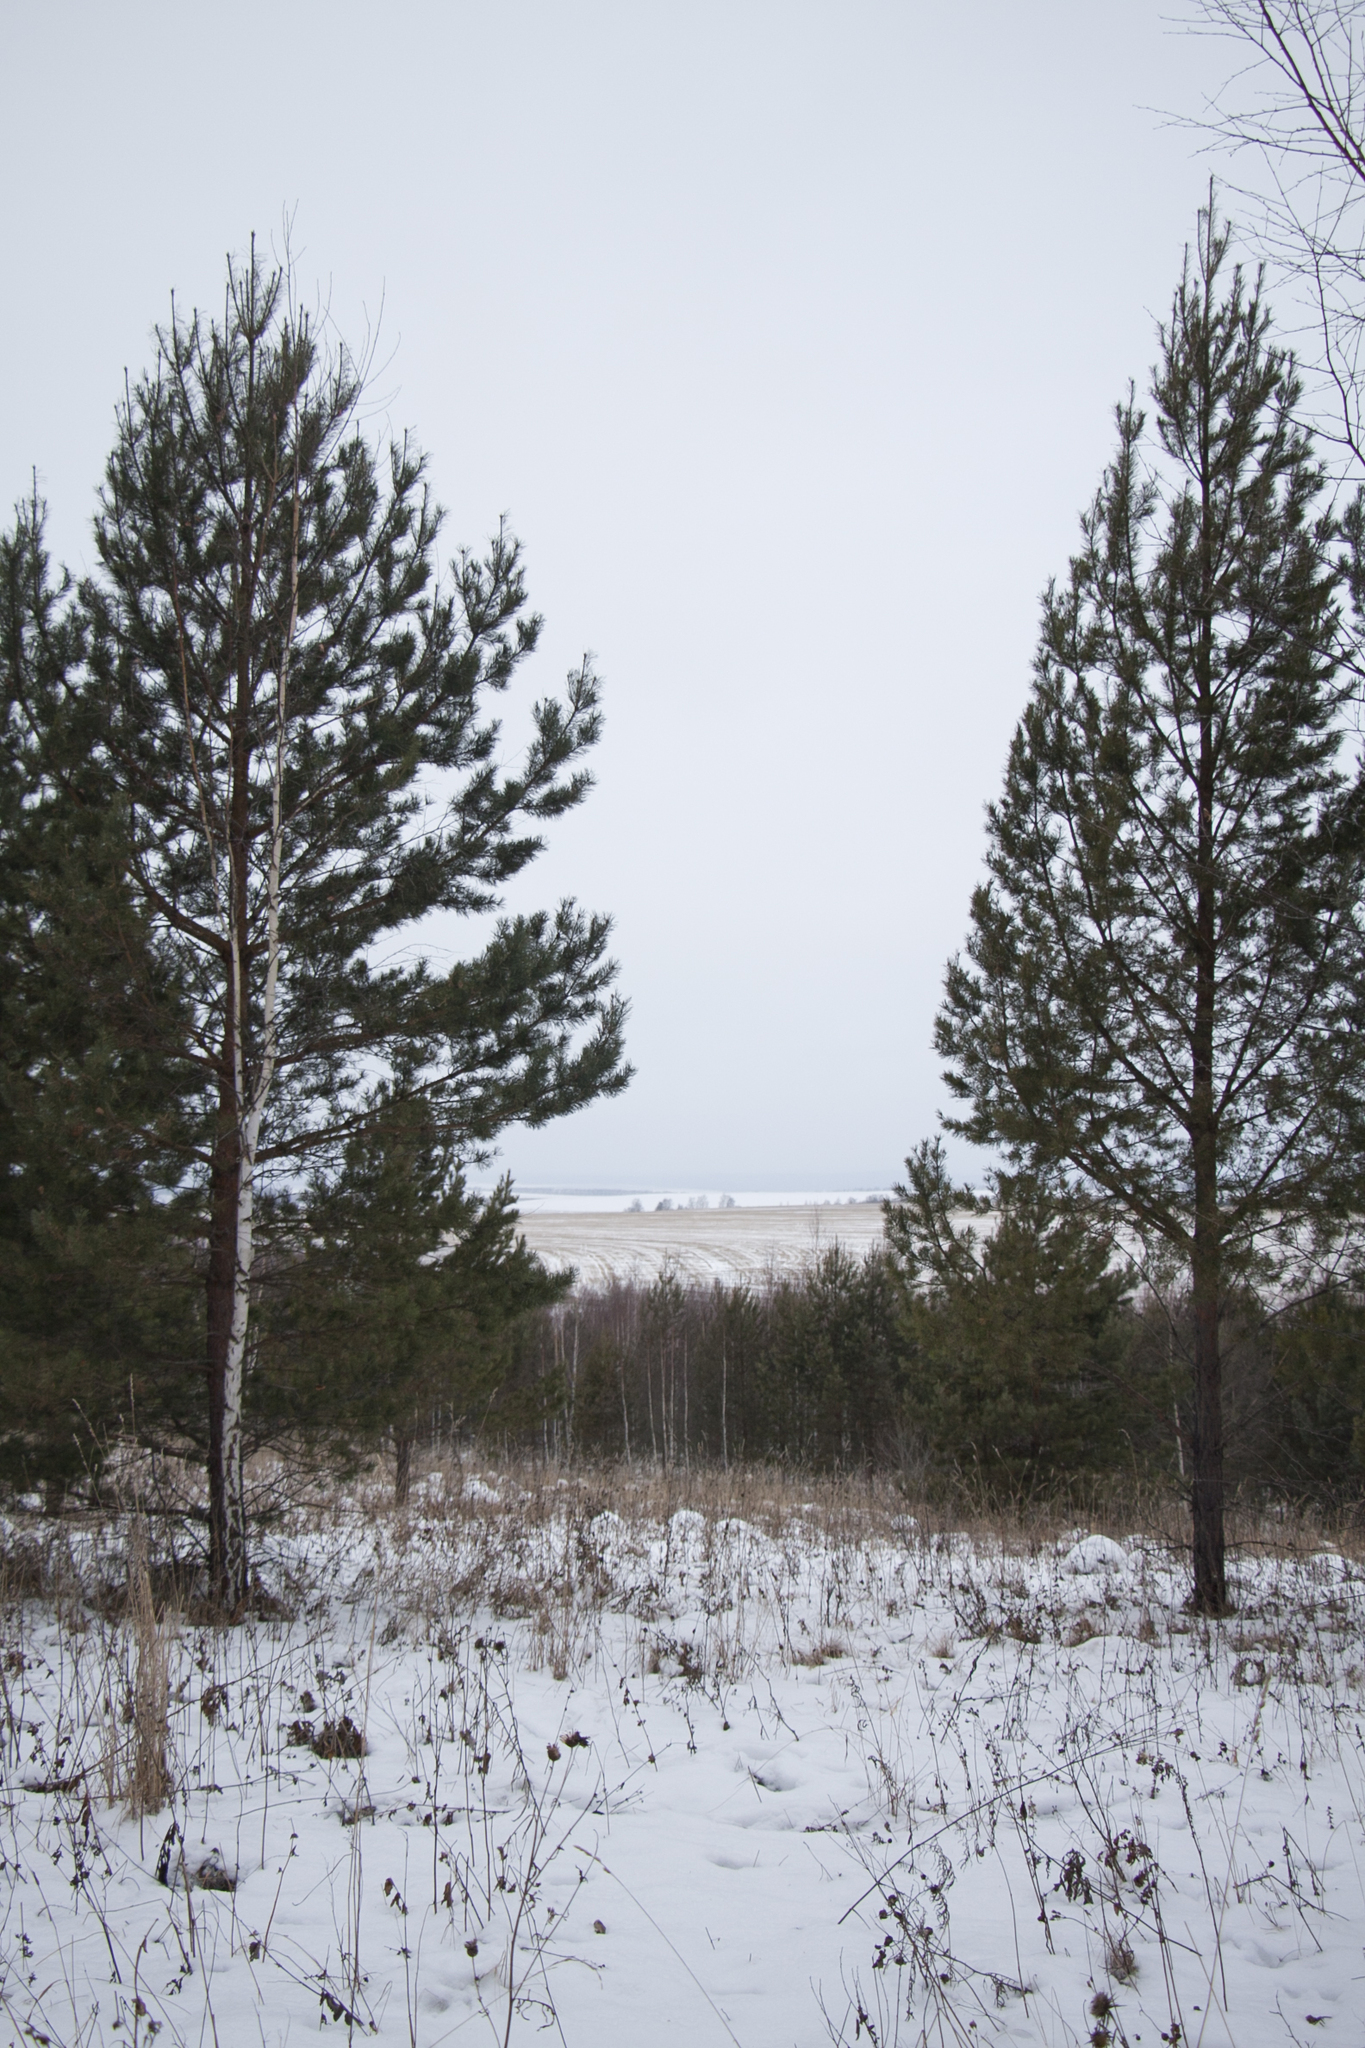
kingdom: Plantae
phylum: Tracheophyta
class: Pinopsida
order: Pinales
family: Pinaceae
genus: Pinus
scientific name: Pinus sylvestris
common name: Scots pine
